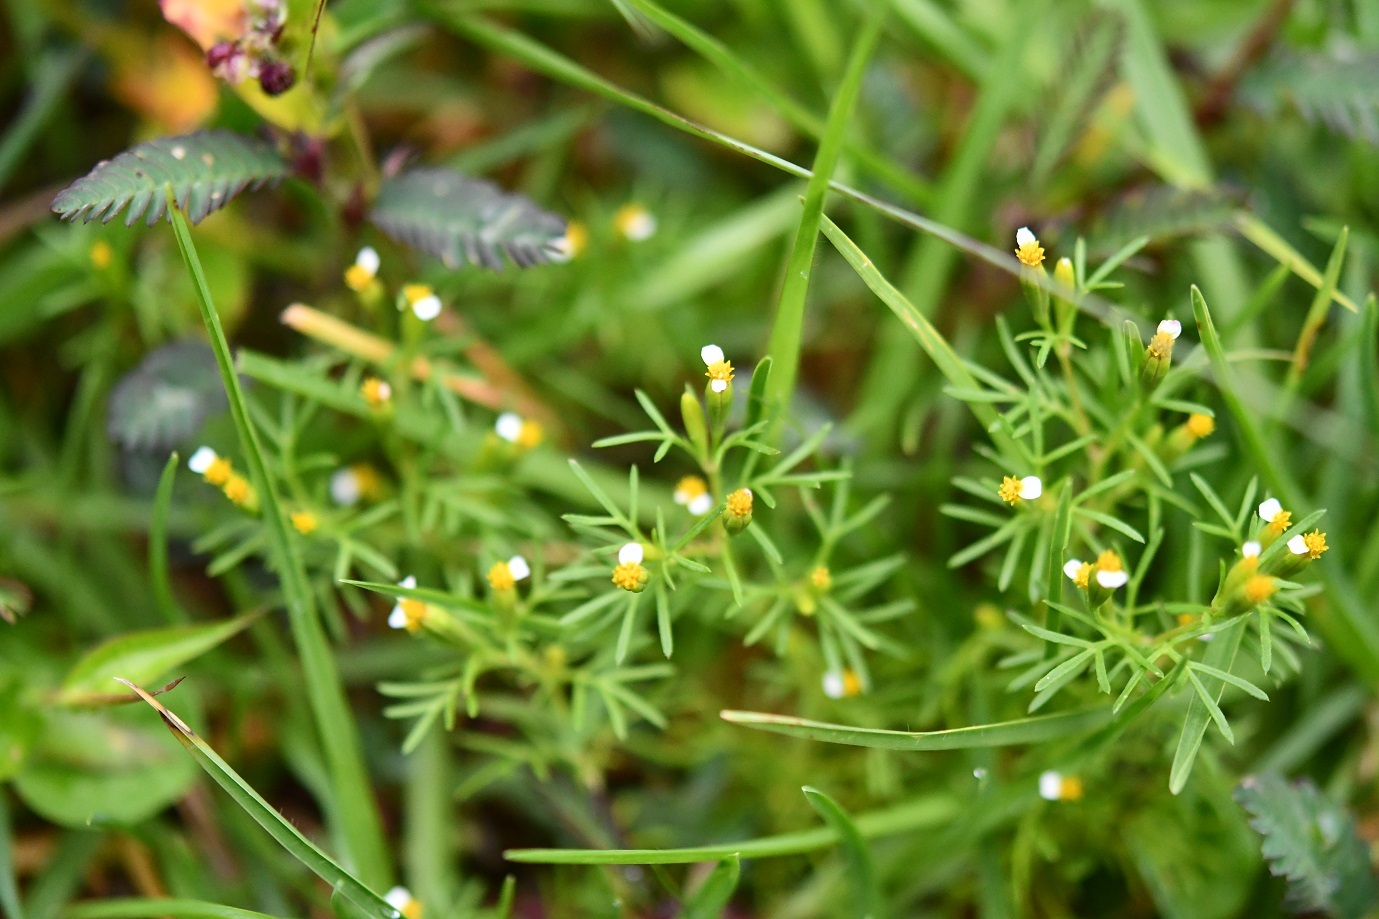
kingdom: Plantae
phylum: Tracheophyta
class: Magnoliopsida
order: Asterales
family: Asteraceae
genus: Tagetes
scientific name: Tagetes filifolia
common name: Lesser marigold
